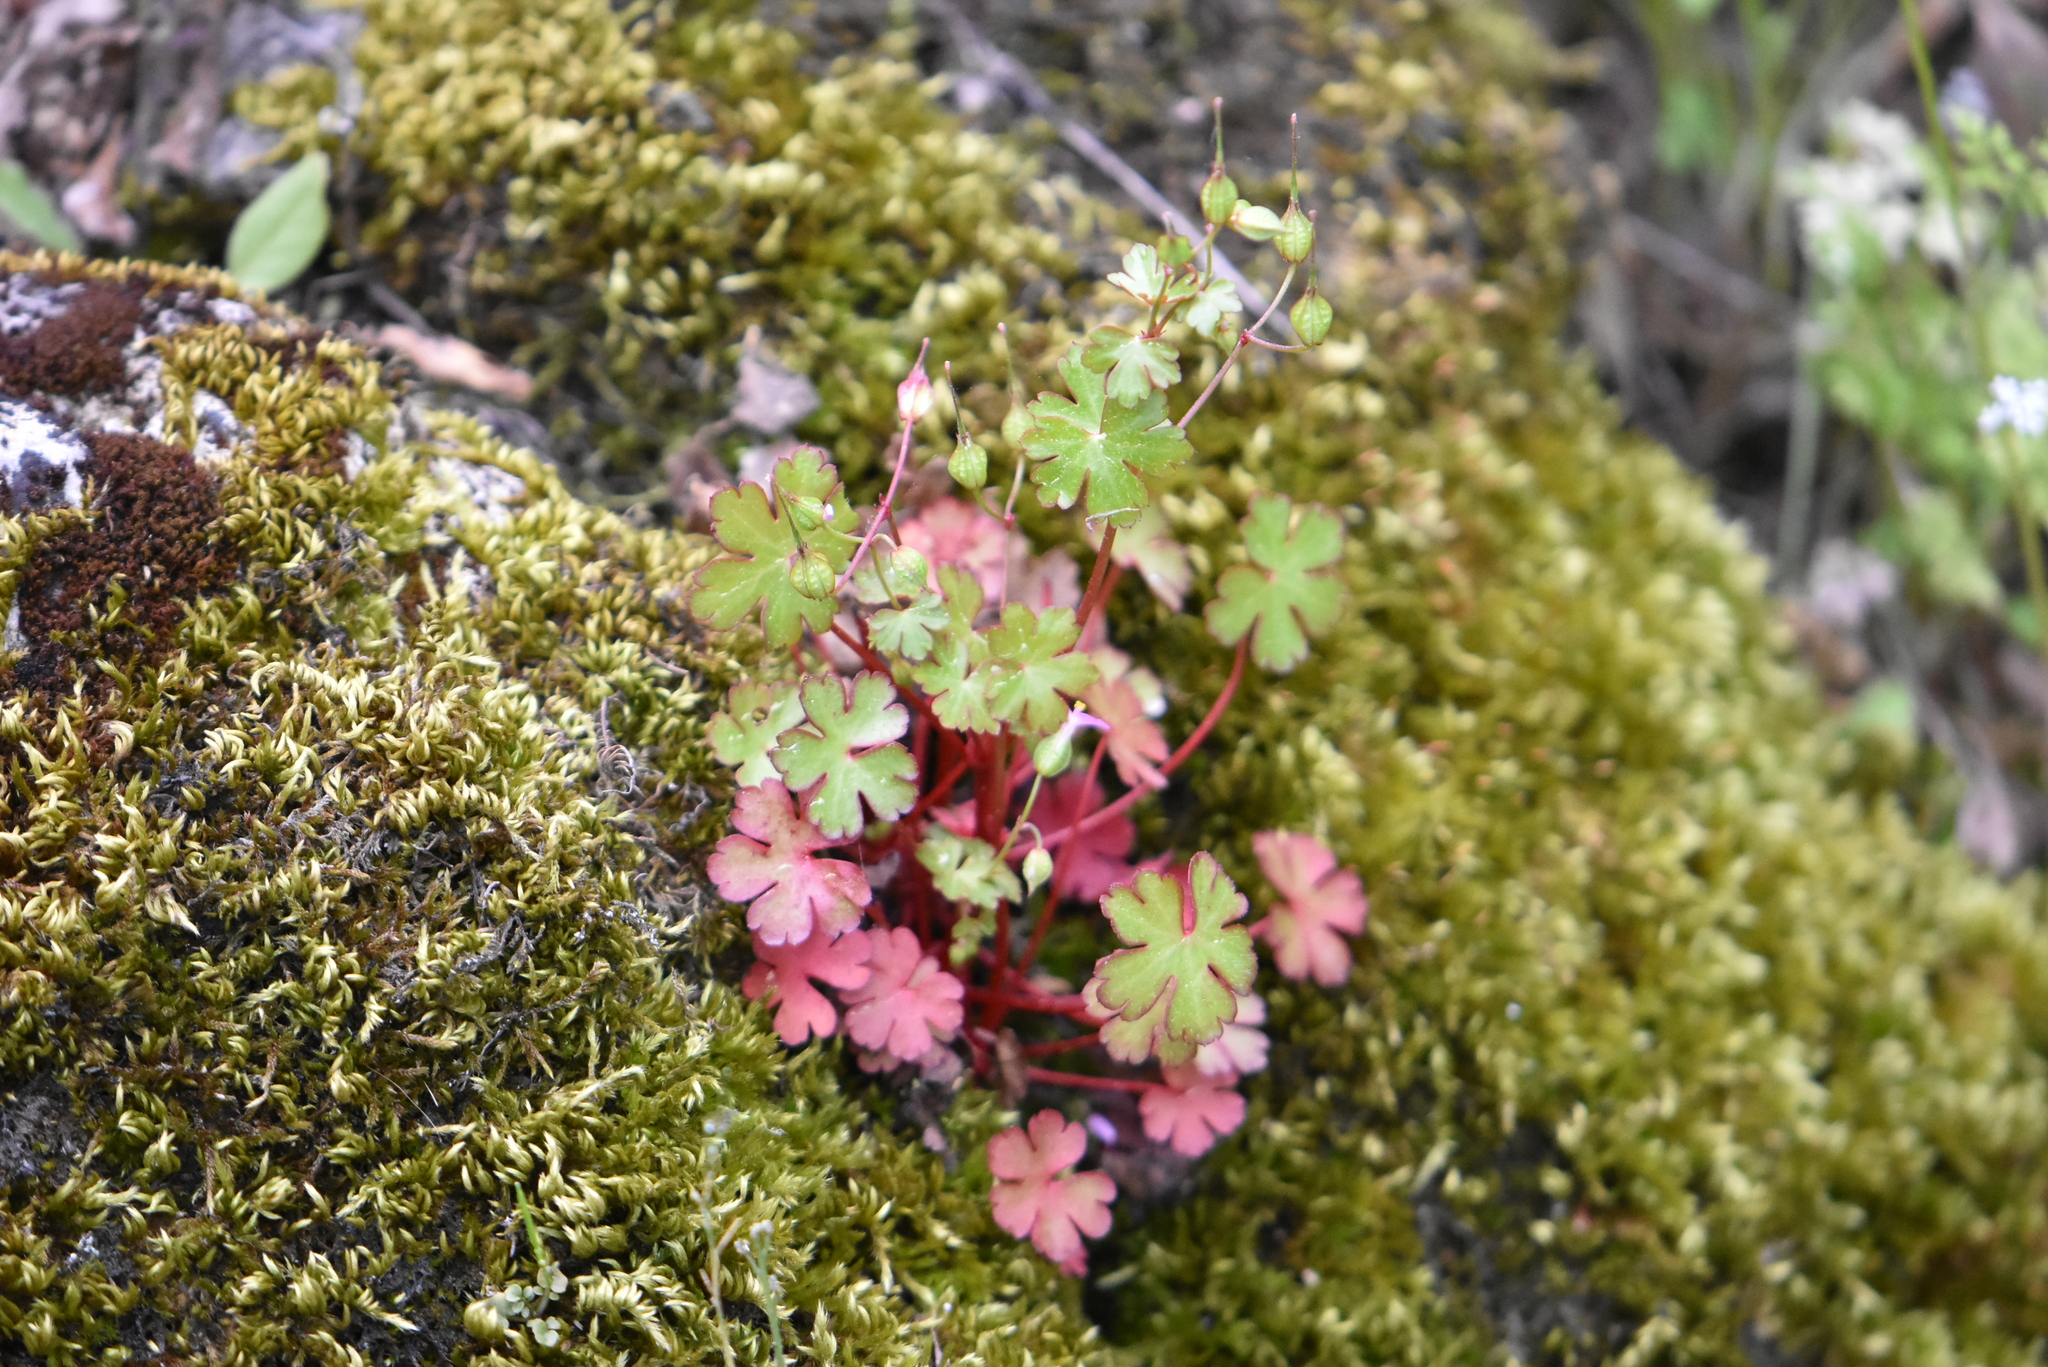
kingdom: Plantae
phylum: Tracheophyta
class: Magnoliopsida
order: Geraniales
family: Geraniaceae
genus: Geranium
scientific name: Geranium lucidum
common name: Shining crane's-bill
